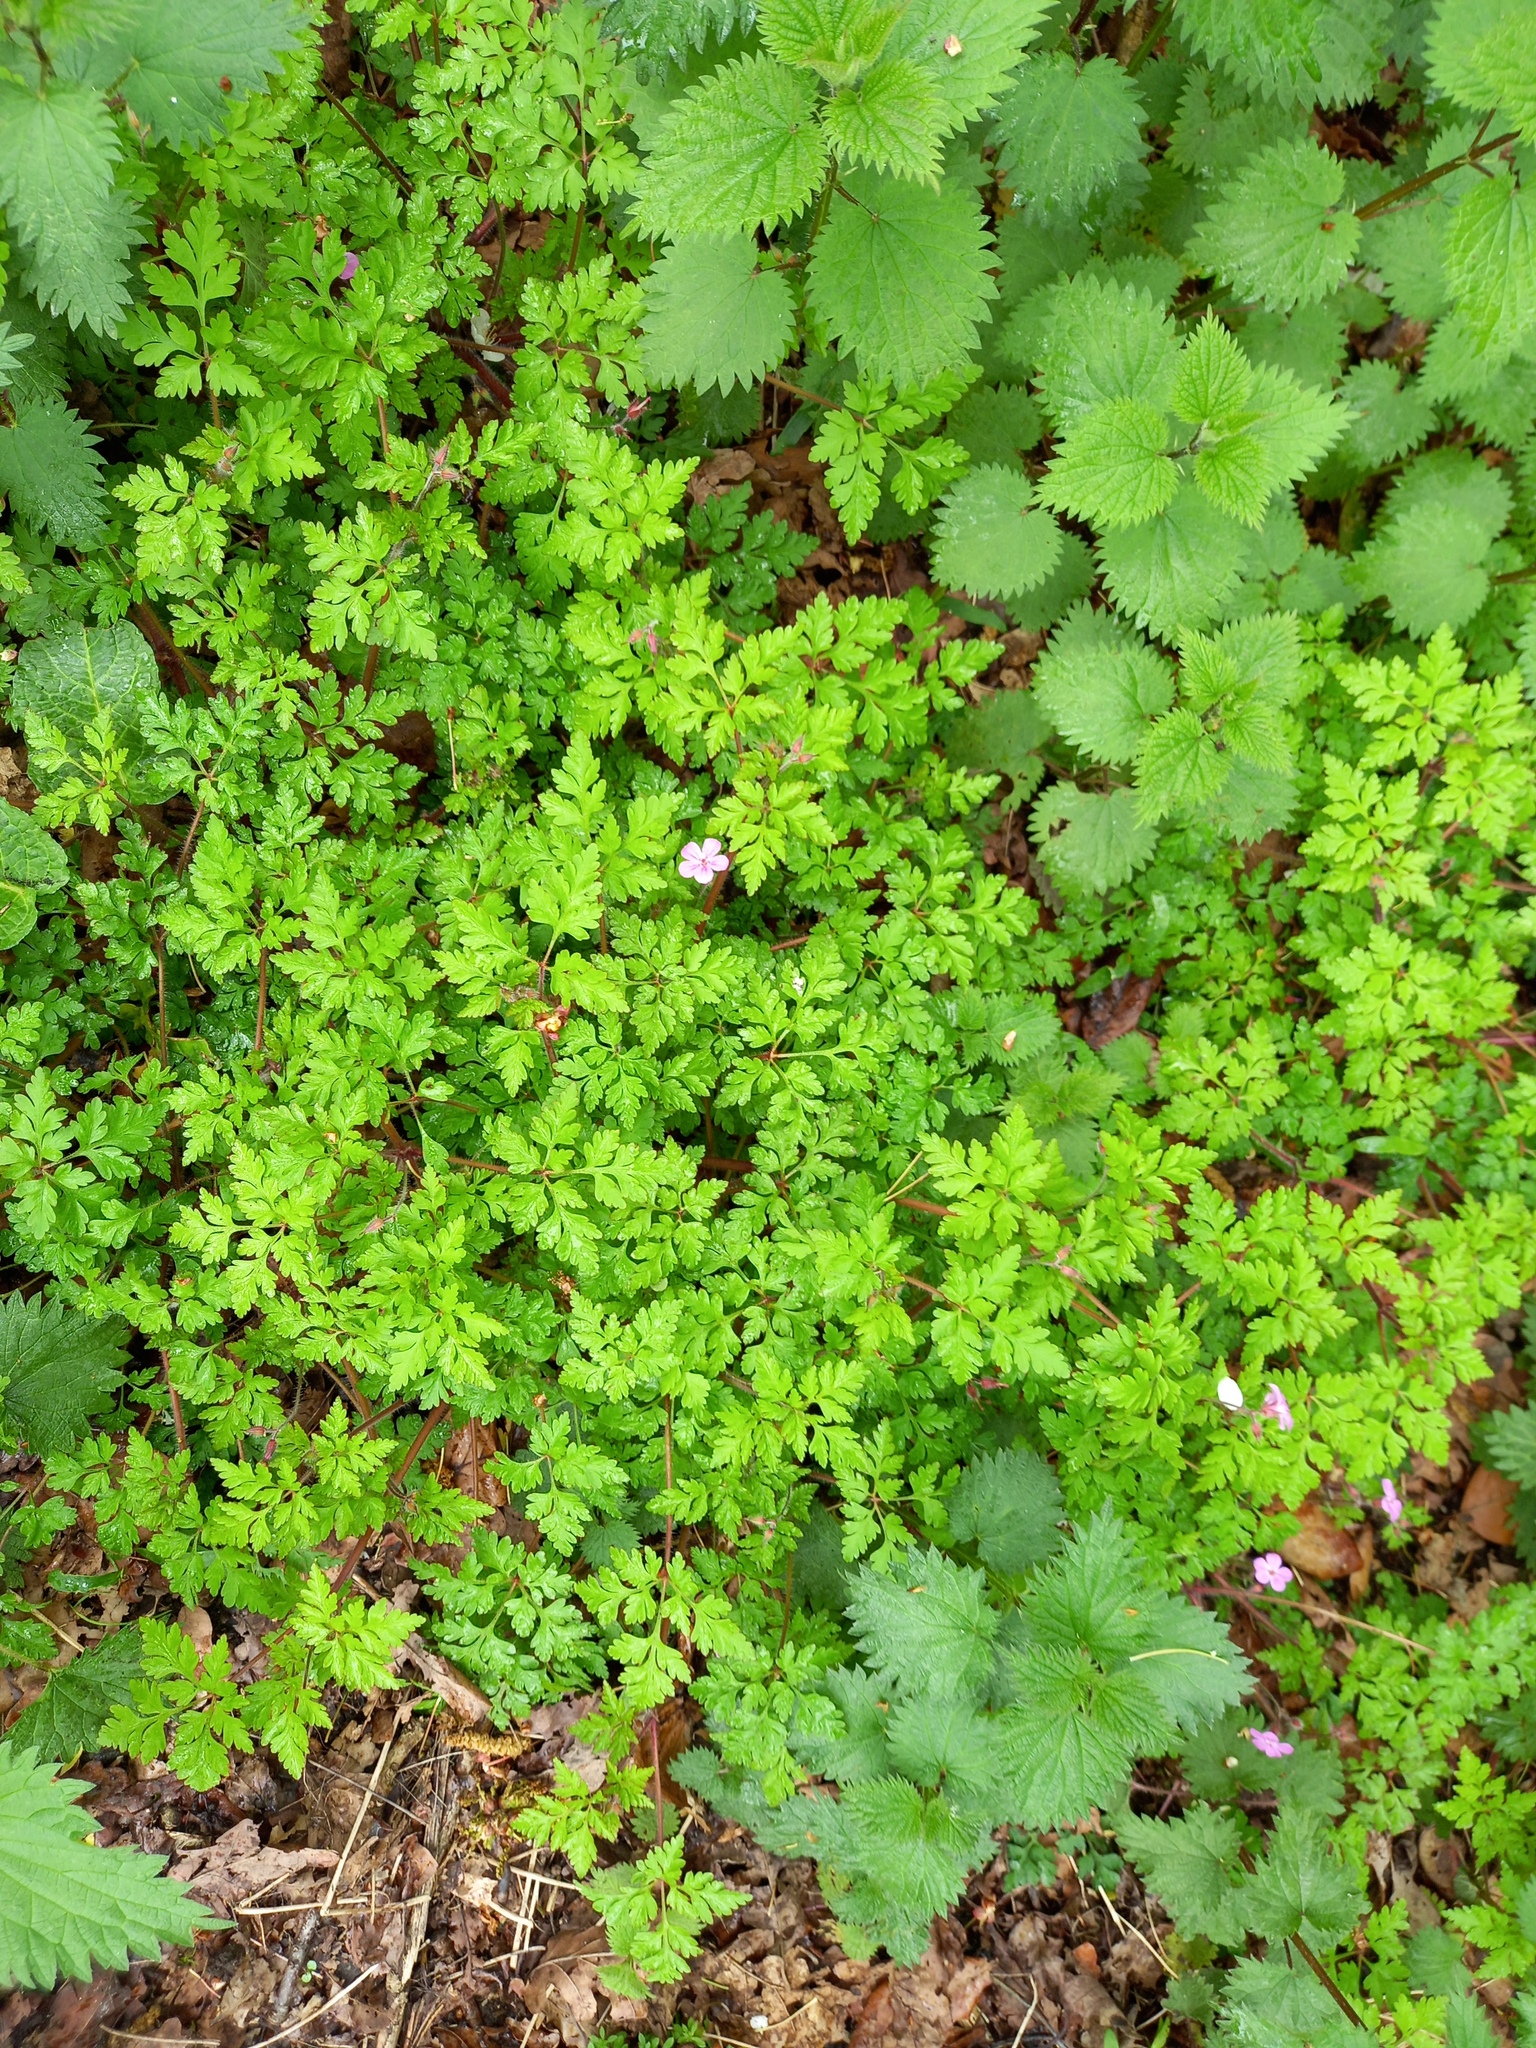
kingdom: Plantae
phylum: Tracheophyta
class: Magnoliopsida
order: Rosales
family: Urticaceae
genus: Urtica
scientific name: Urtica dioica
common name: Common nettle
